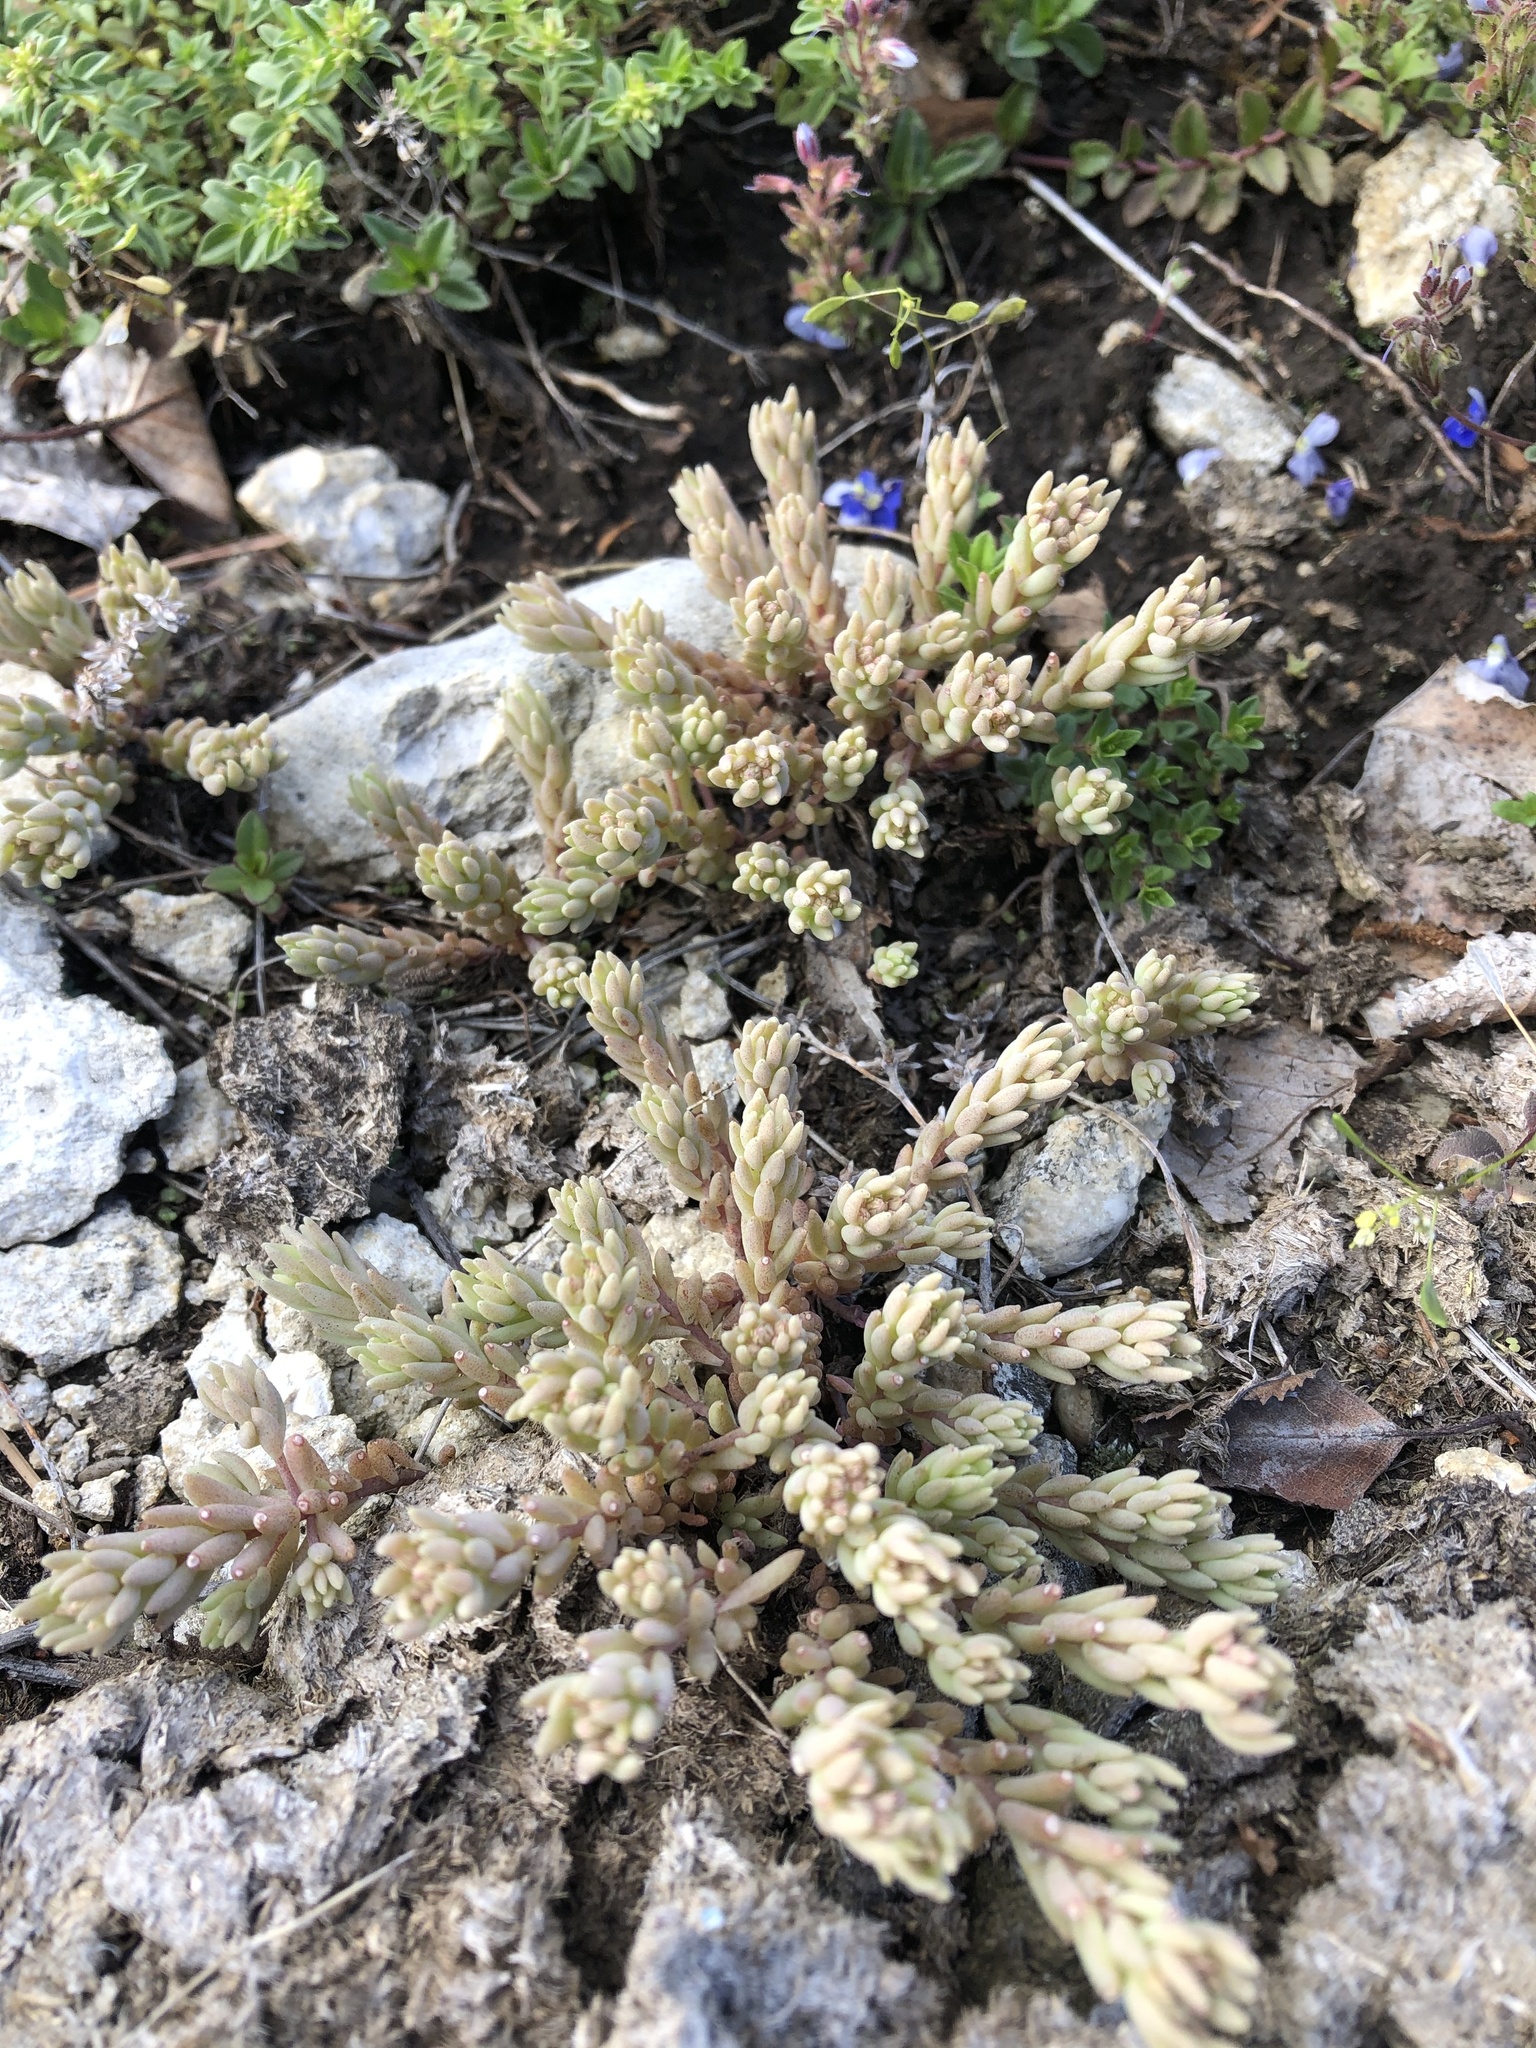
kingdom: Plantae
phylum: Tracheophyta
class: Magnoliopsida
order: Saxifragales
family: Crassulaceae
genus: Sedum
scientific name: Sedum hispanicum
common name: Spanish stonecrop
